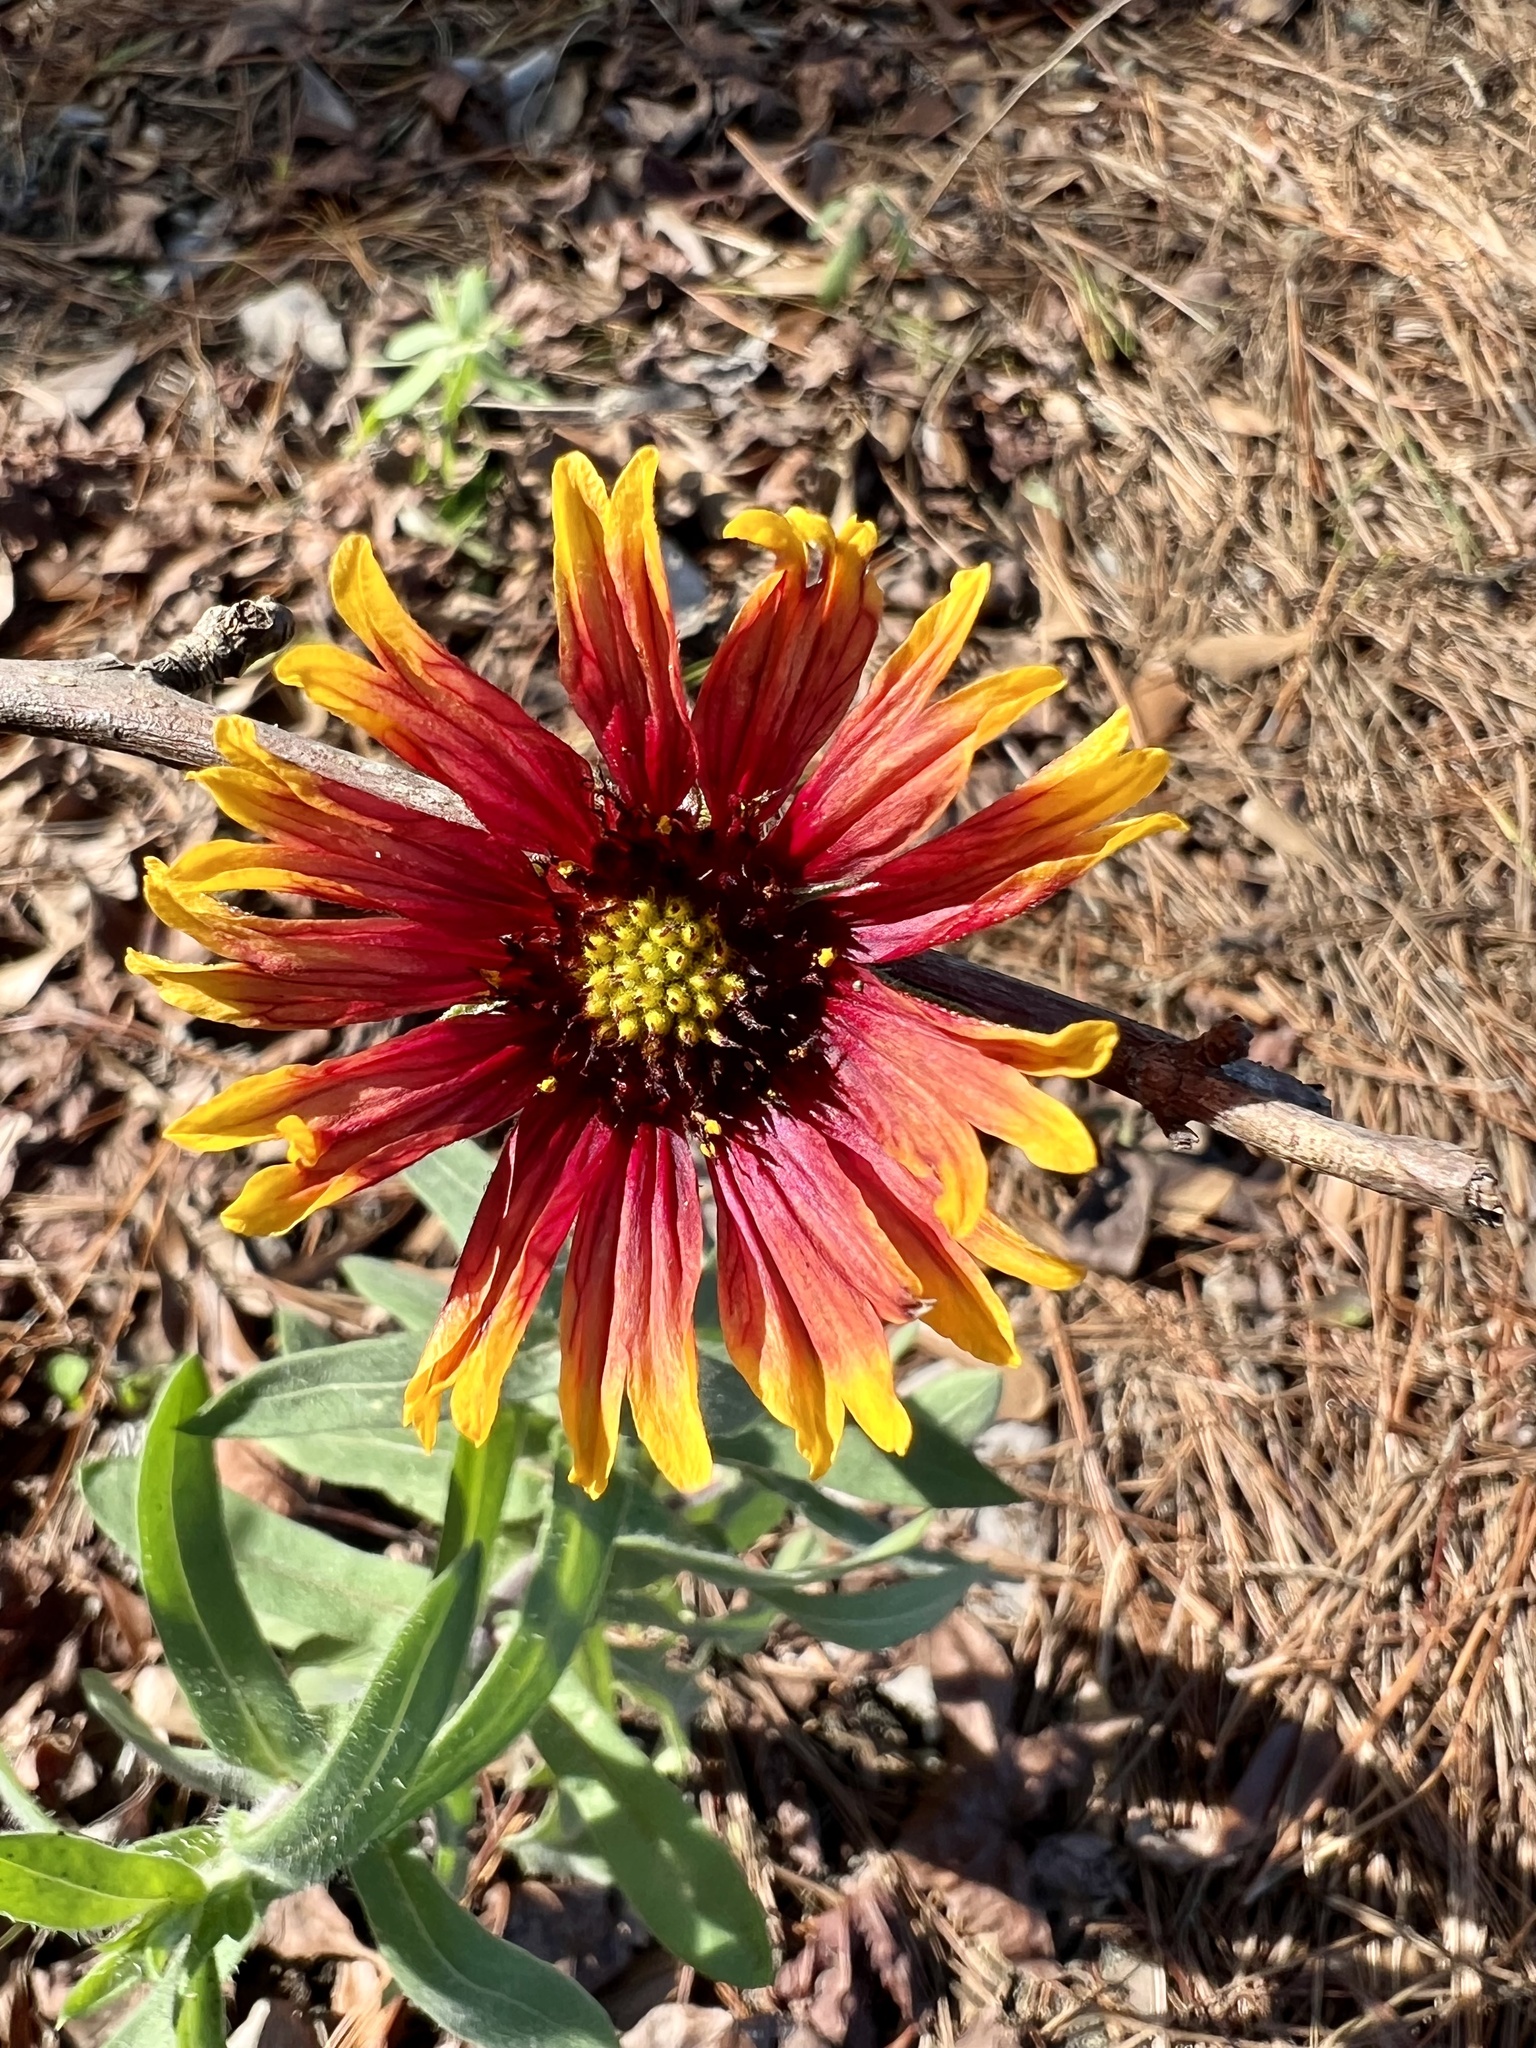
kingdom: Plantae
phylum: Tracheophyta
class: Magnoliopsida
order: Asterales
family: Asteraceae
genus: Gaillardia
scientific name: Gaillardia pulchella
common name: Firewheel
